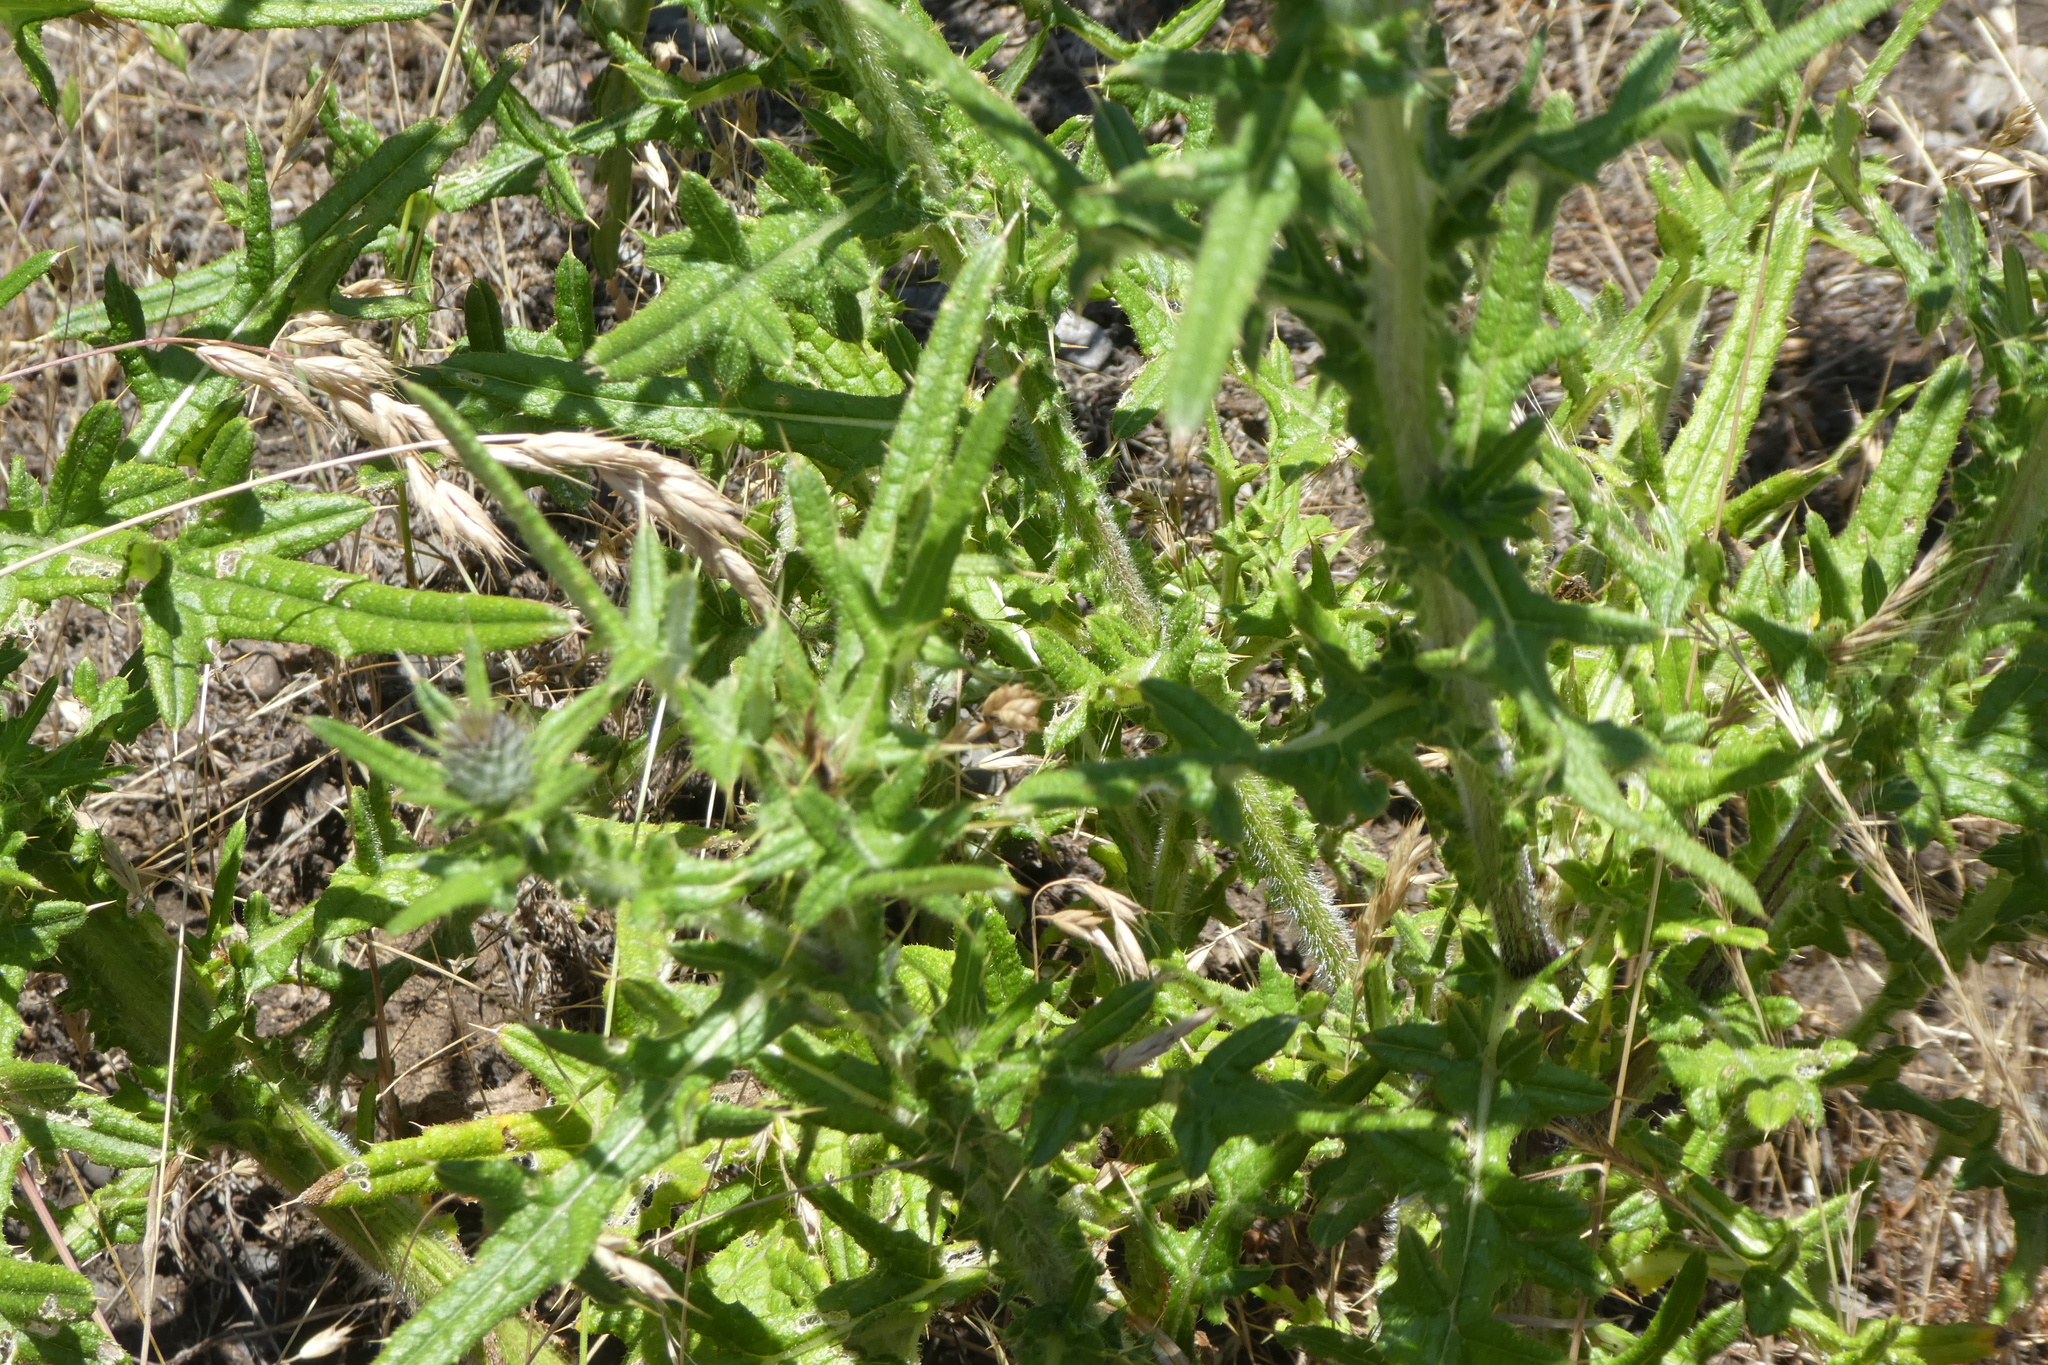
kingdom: Plantae
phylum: Tracheophyta
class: Magnoliopsida
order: Asterales
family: Asteraceae
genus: Cirsium
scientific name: Cirsium vulgare
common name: Bull thistle
